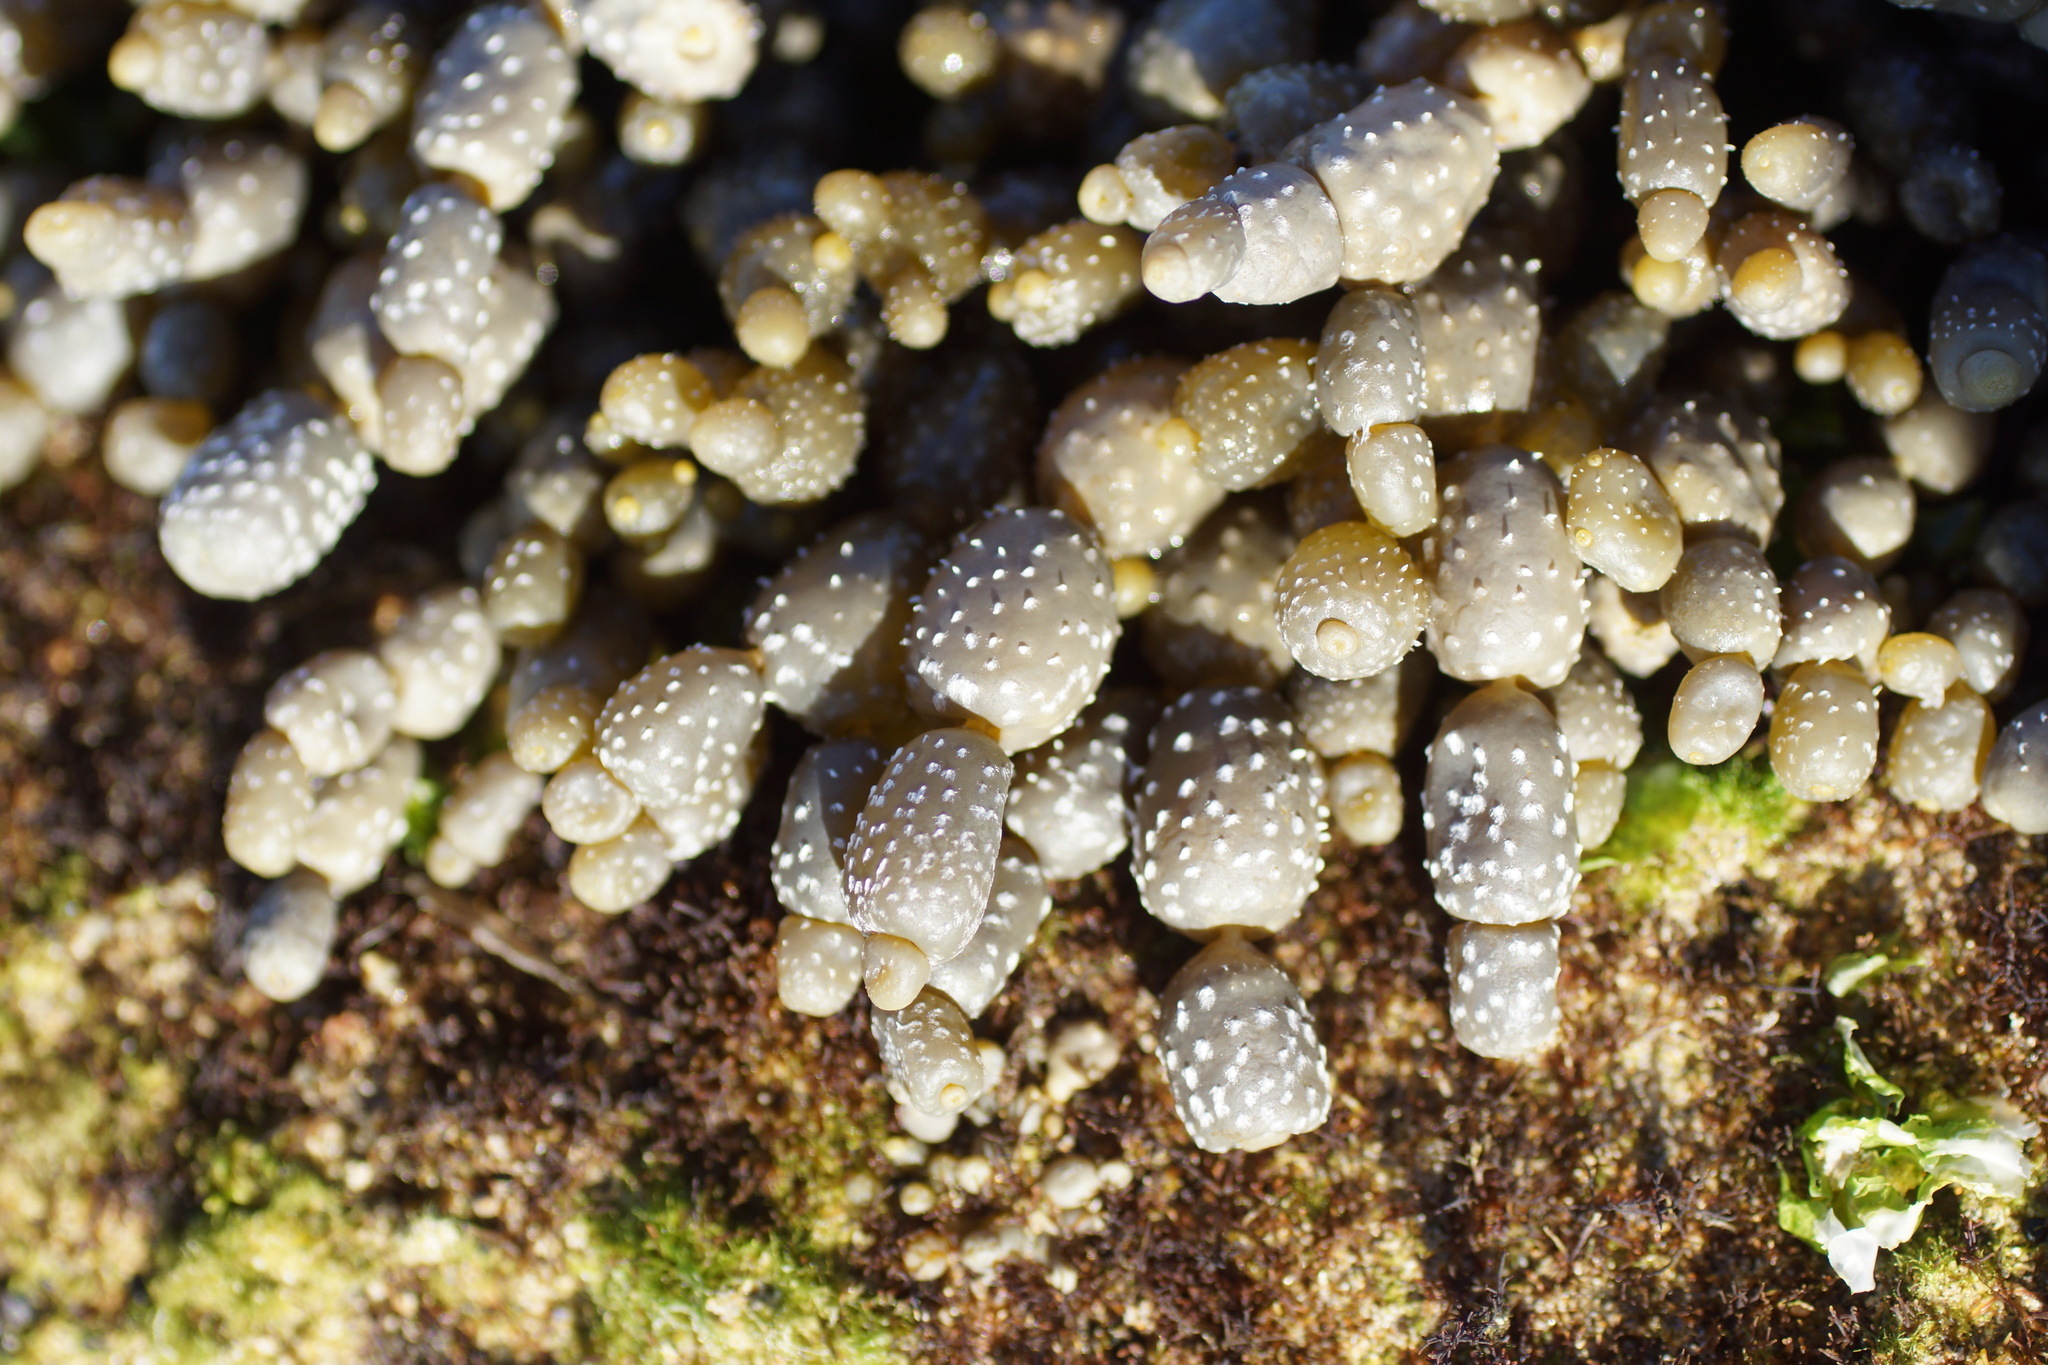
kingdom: Chromista
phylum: Ochrophyta
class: Phaeophyceae
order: Fucales
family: Hormosiraceae
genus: Hormosira
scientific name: Hormosira banksii
